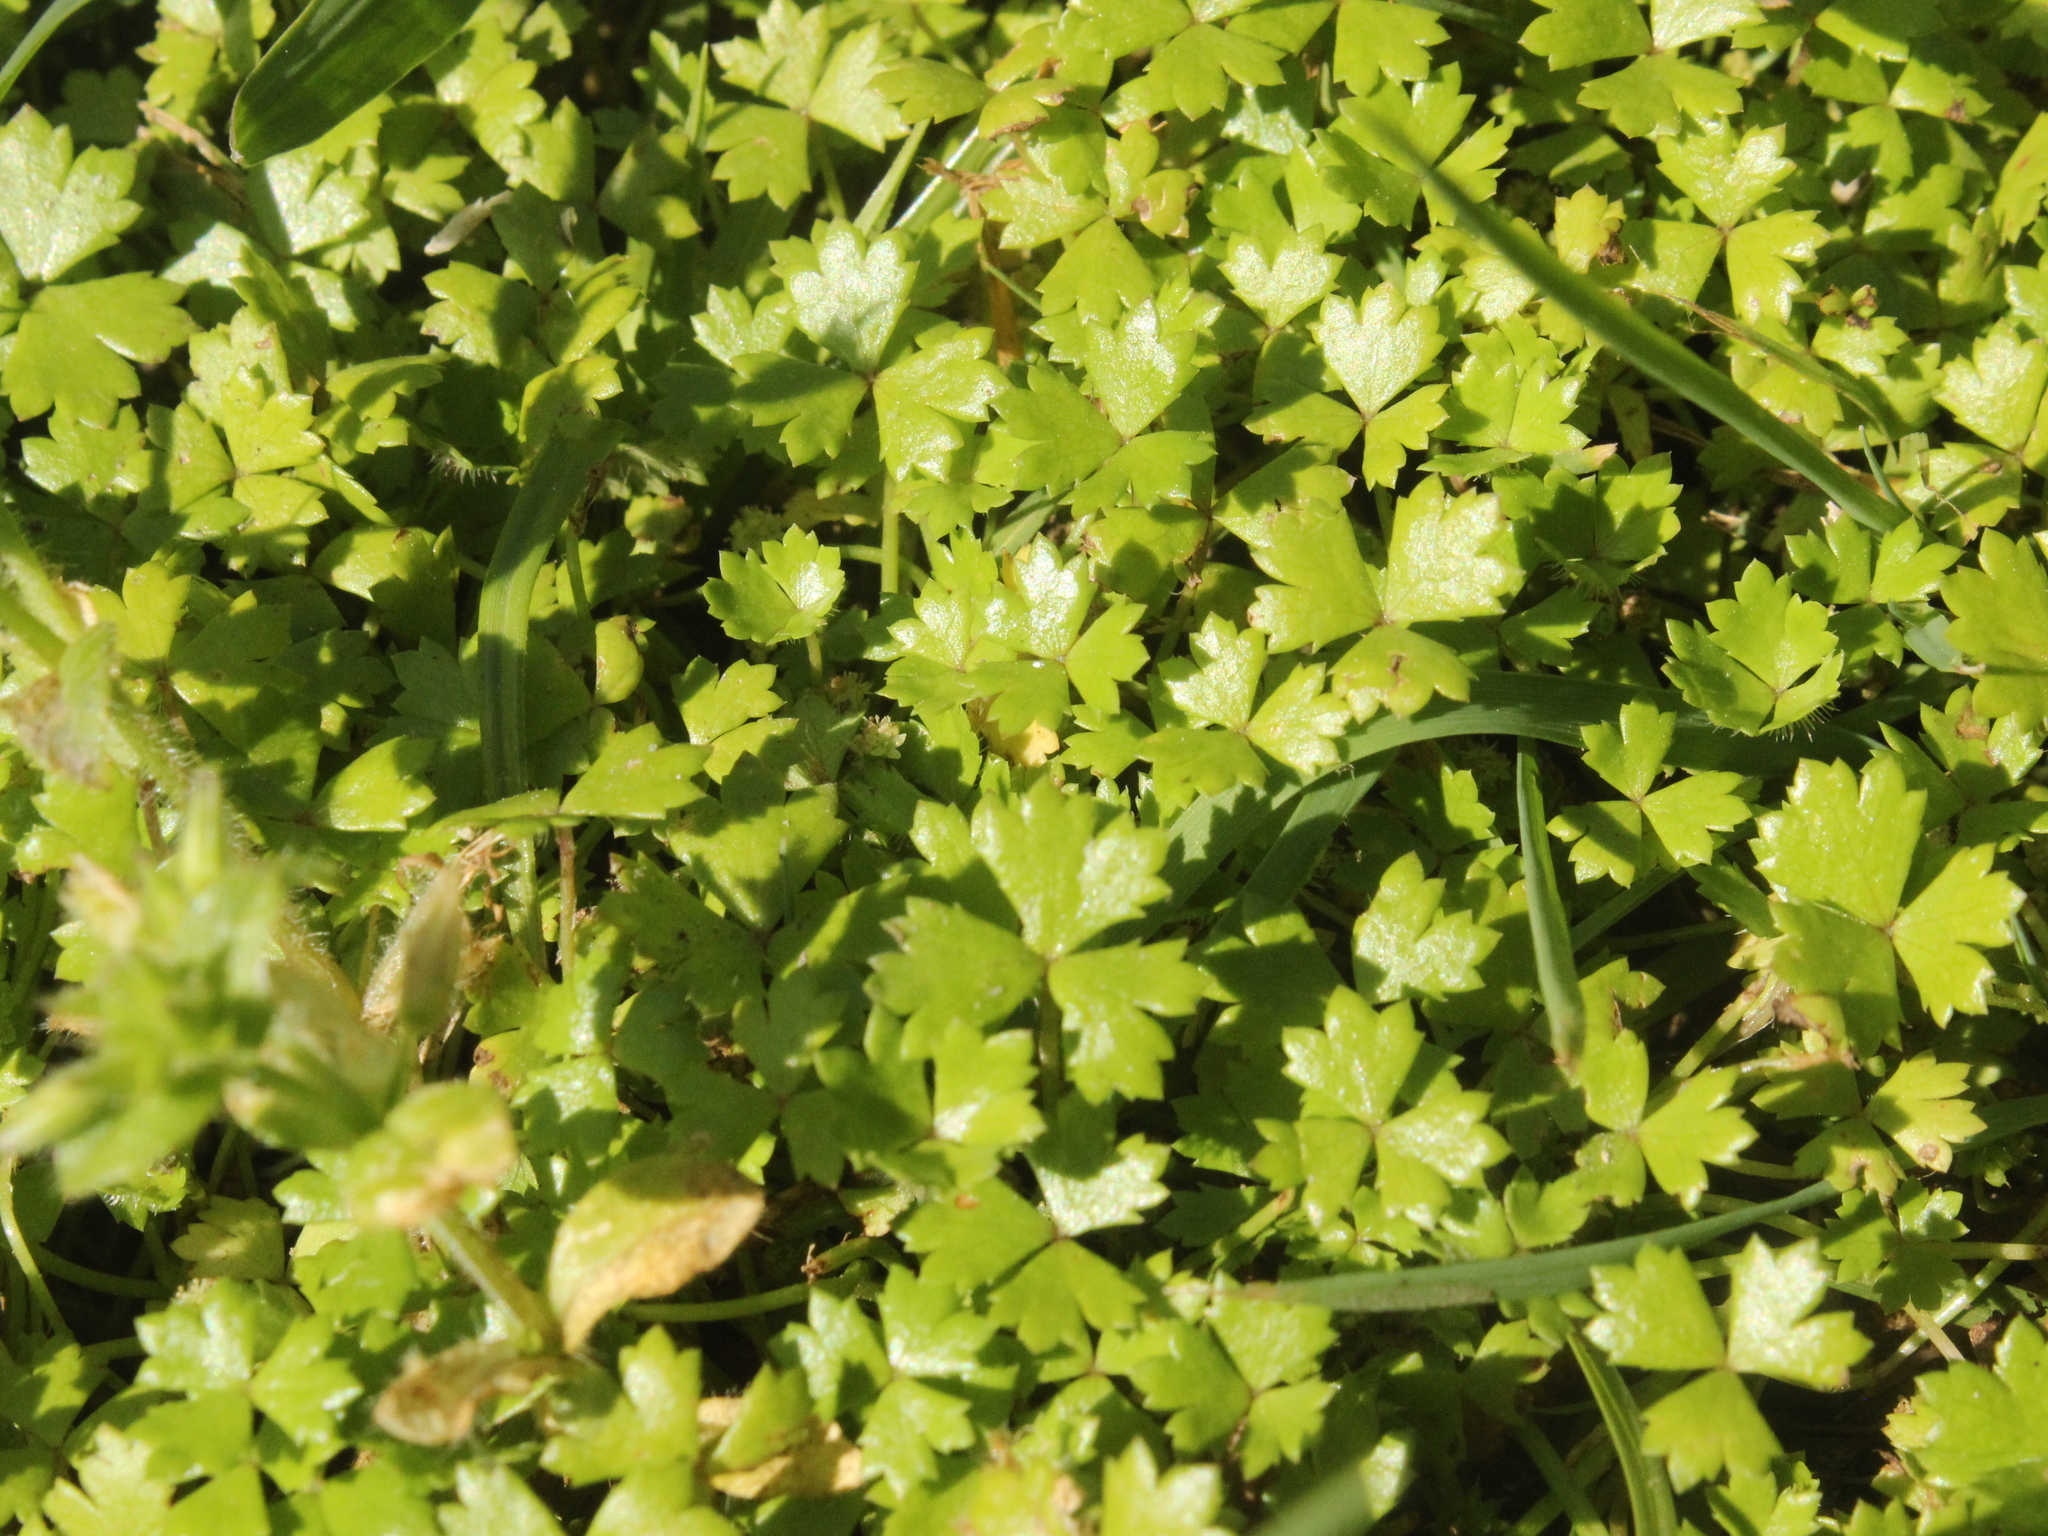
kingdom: Plantae
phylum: Tracheophyta
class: Magnoliopsida
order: Apiales
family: Araliaceae
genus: Hydrocotyle
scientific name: Hydrocotyle tripartita
